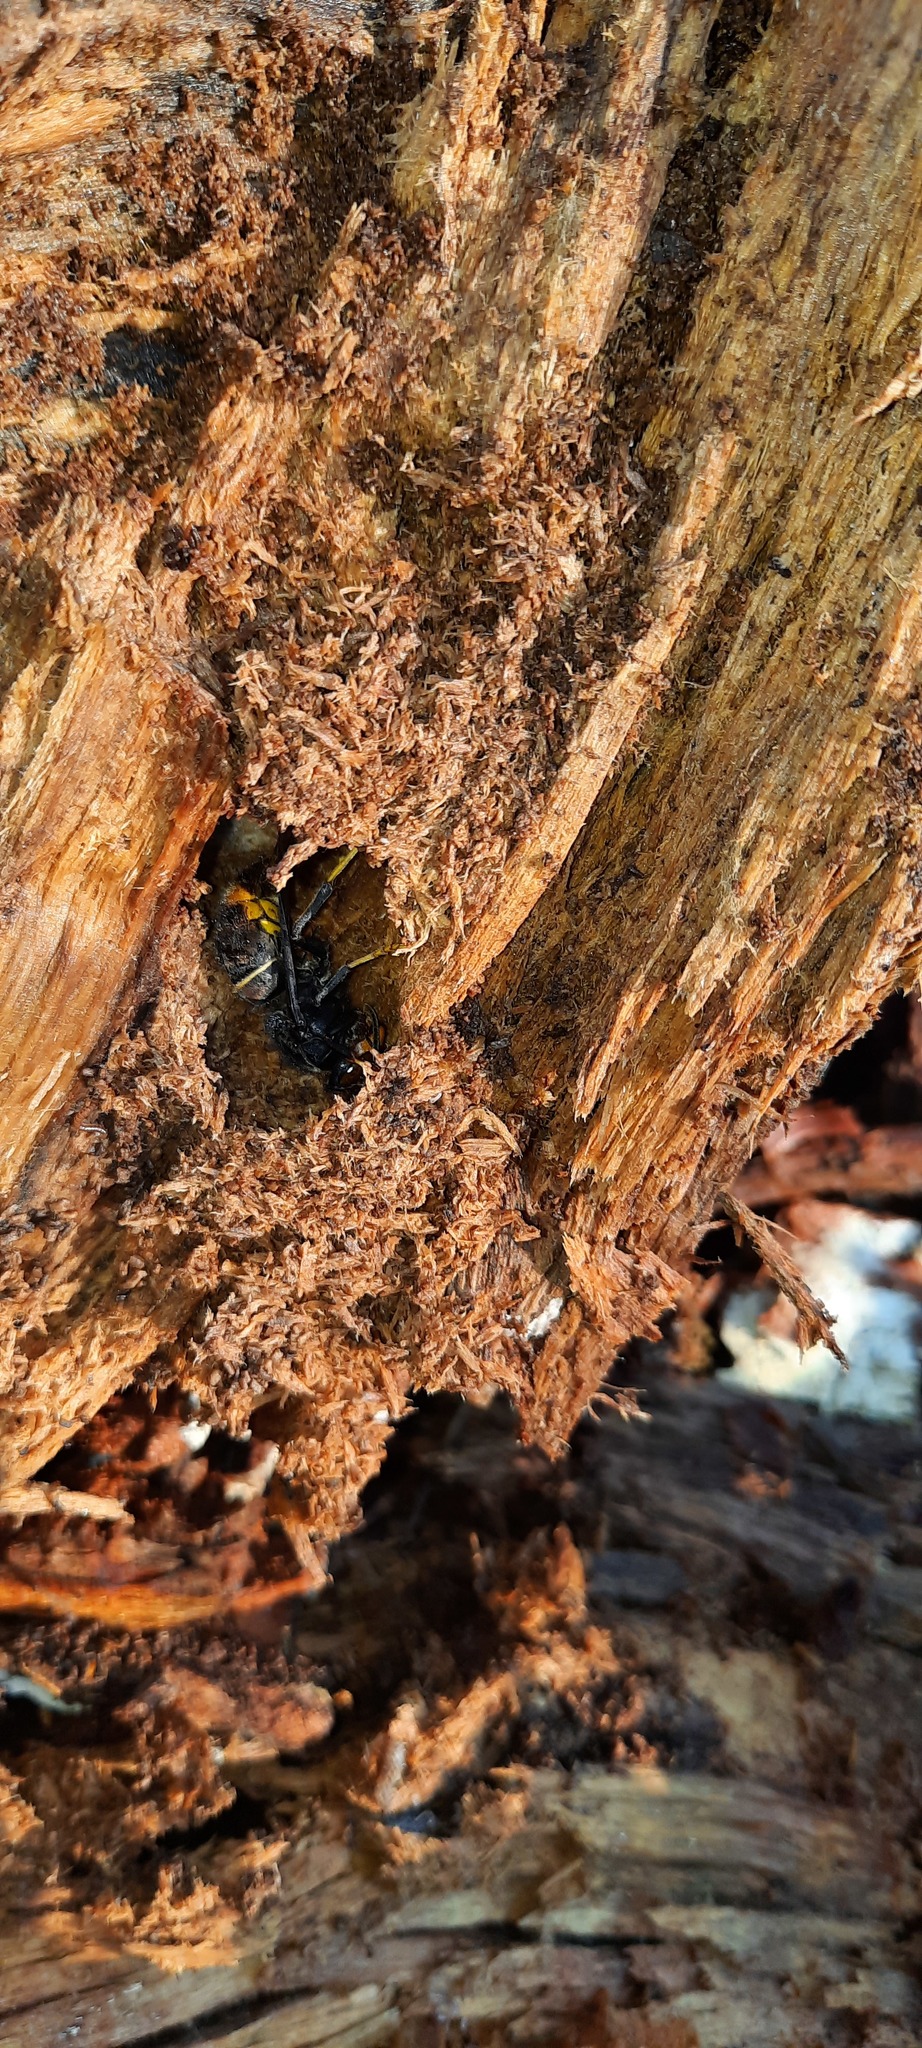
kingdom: Animalia
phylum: Arthropoda
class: Insecta
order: Hymenoptera
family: Vespidae
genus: Vespa
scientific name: Vespa velutina
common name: Asian hornet
